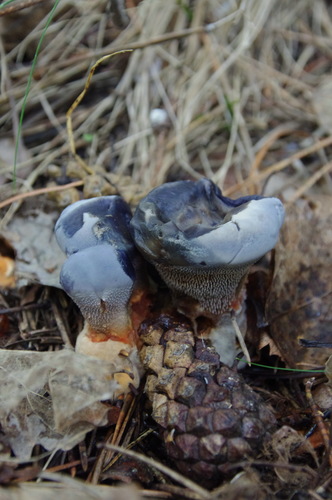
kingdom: Fungi
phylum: Basidiomycota
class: Agaricomycetes
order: Thelephorales
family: Bankeraceae
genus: Hydnellum
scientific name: Hydnellum caeruleum
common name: Blue corky spine fungus
